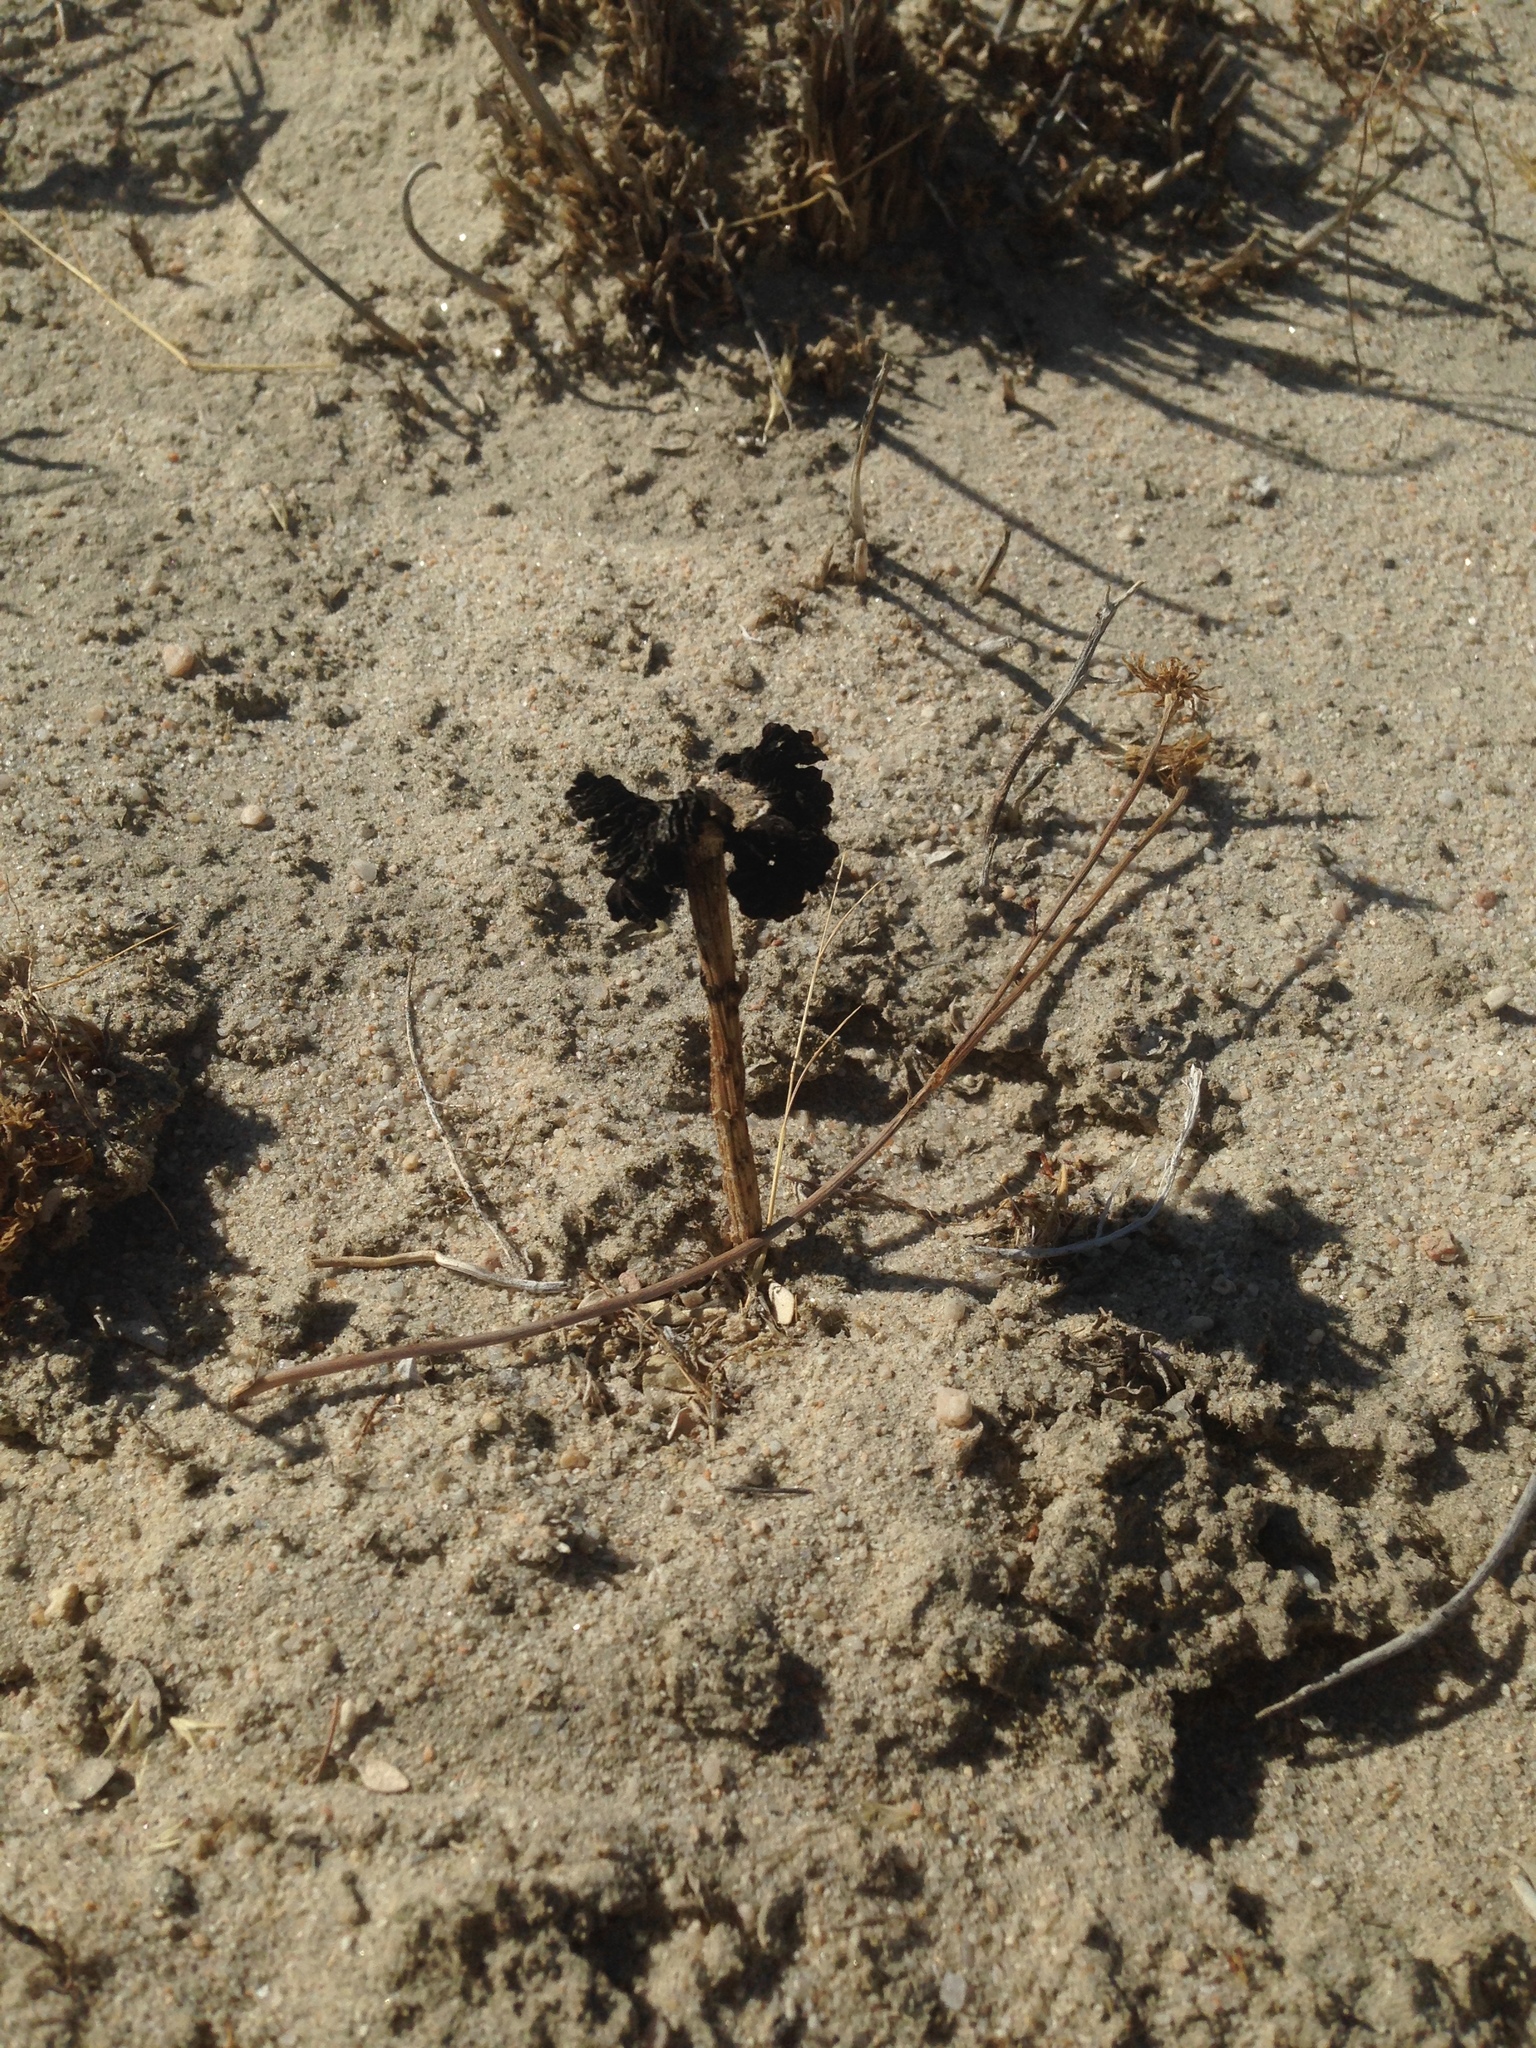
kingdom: Fungi
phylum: Basidiomycota
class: Agaricomycetes
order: Agaricales
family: Agaricaceae
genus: Montagnea
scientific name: Montagnea arenaria
